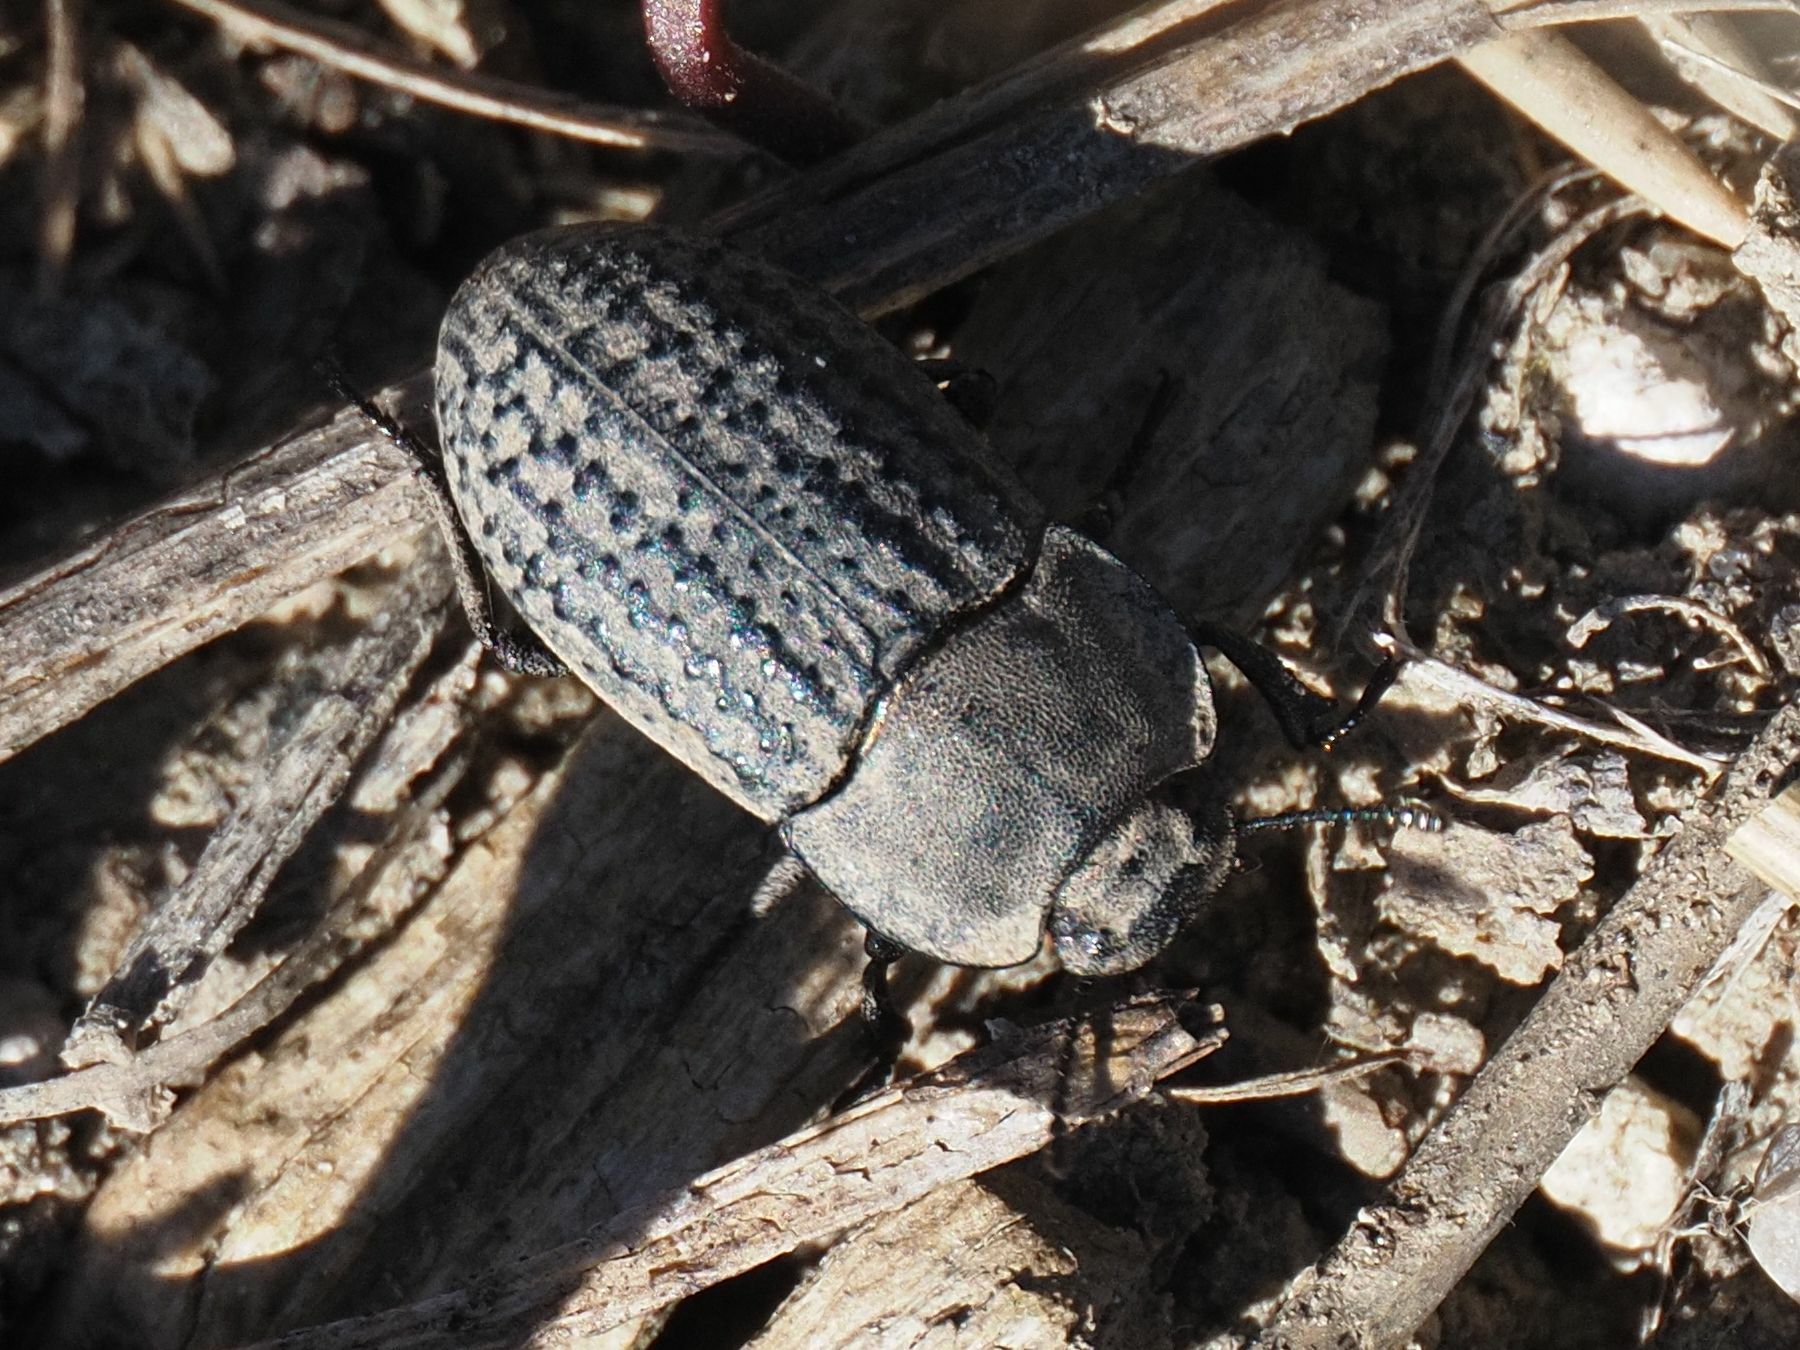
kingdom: Animalia
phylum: Arthropoda
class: Insecta
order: Coleoptera
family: Tenebrionidae
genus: Opatrum
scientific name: Opatrum sabulosum
